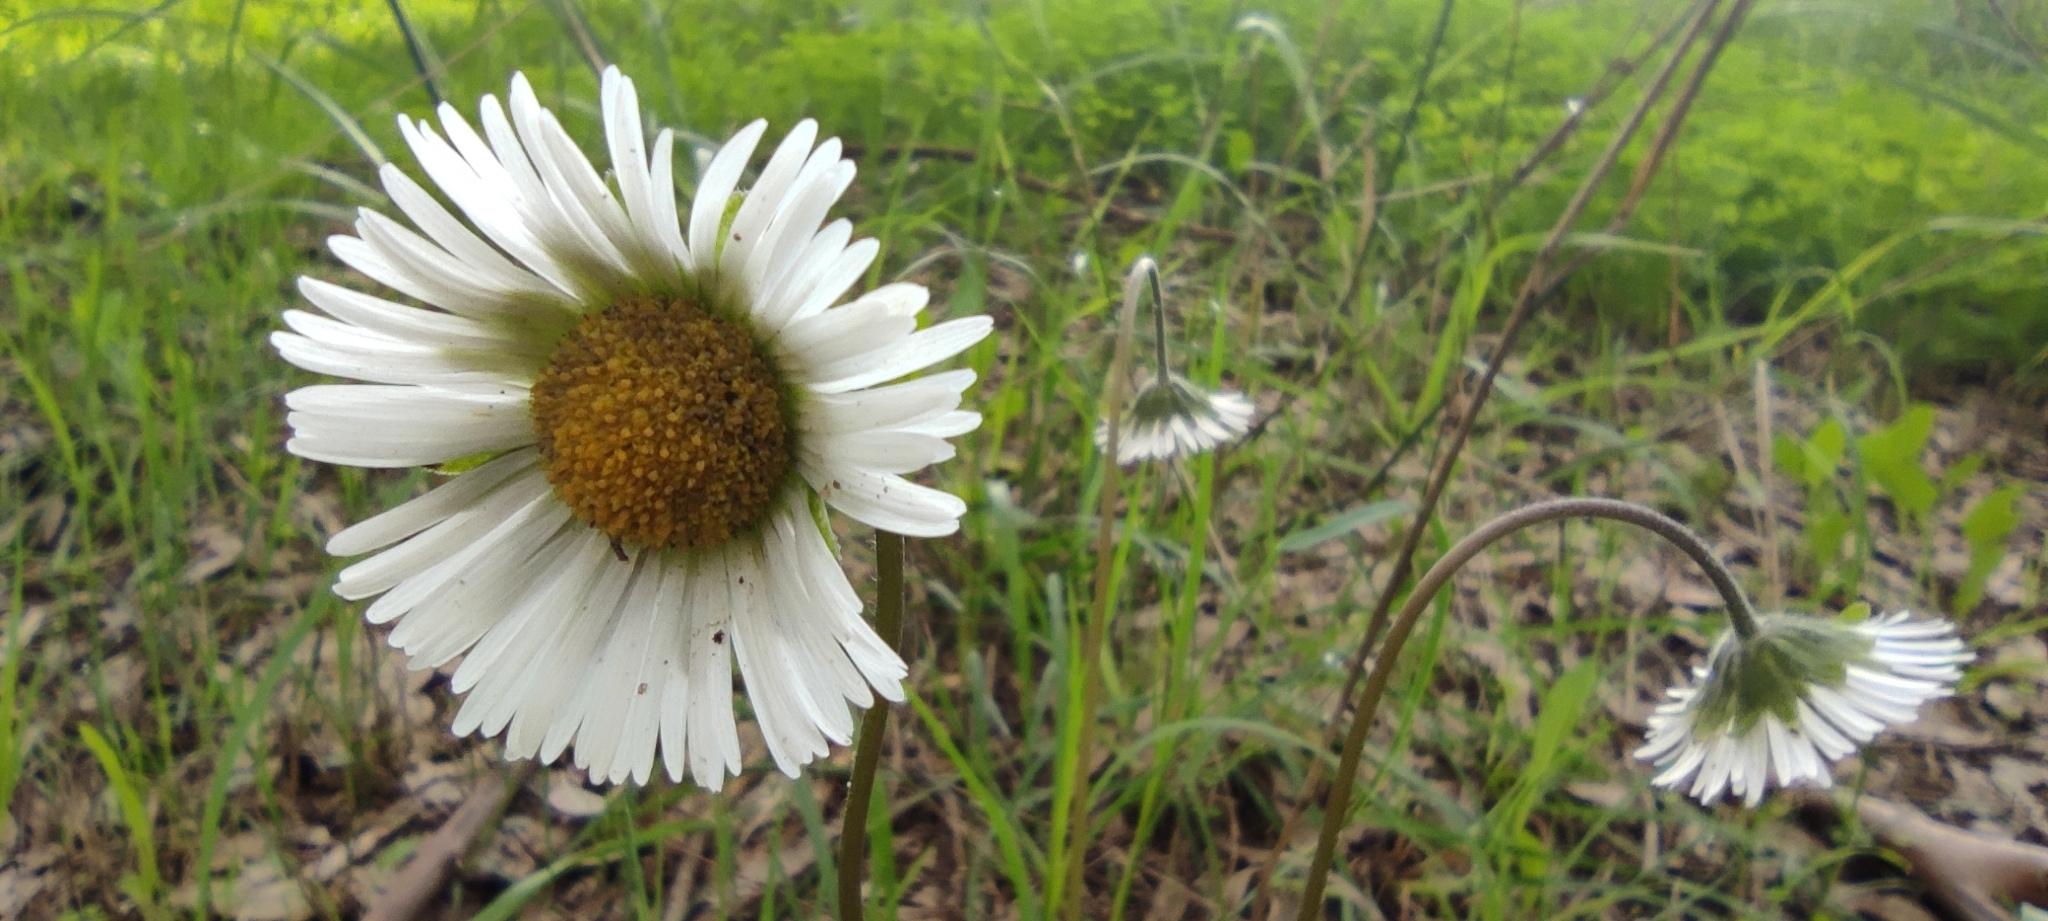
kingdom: Plantae
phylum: Tracheophyta
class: Magnoliopsida
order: Asterales
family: Asteraceae
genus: Bellis
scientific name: Bellis sylvestris
